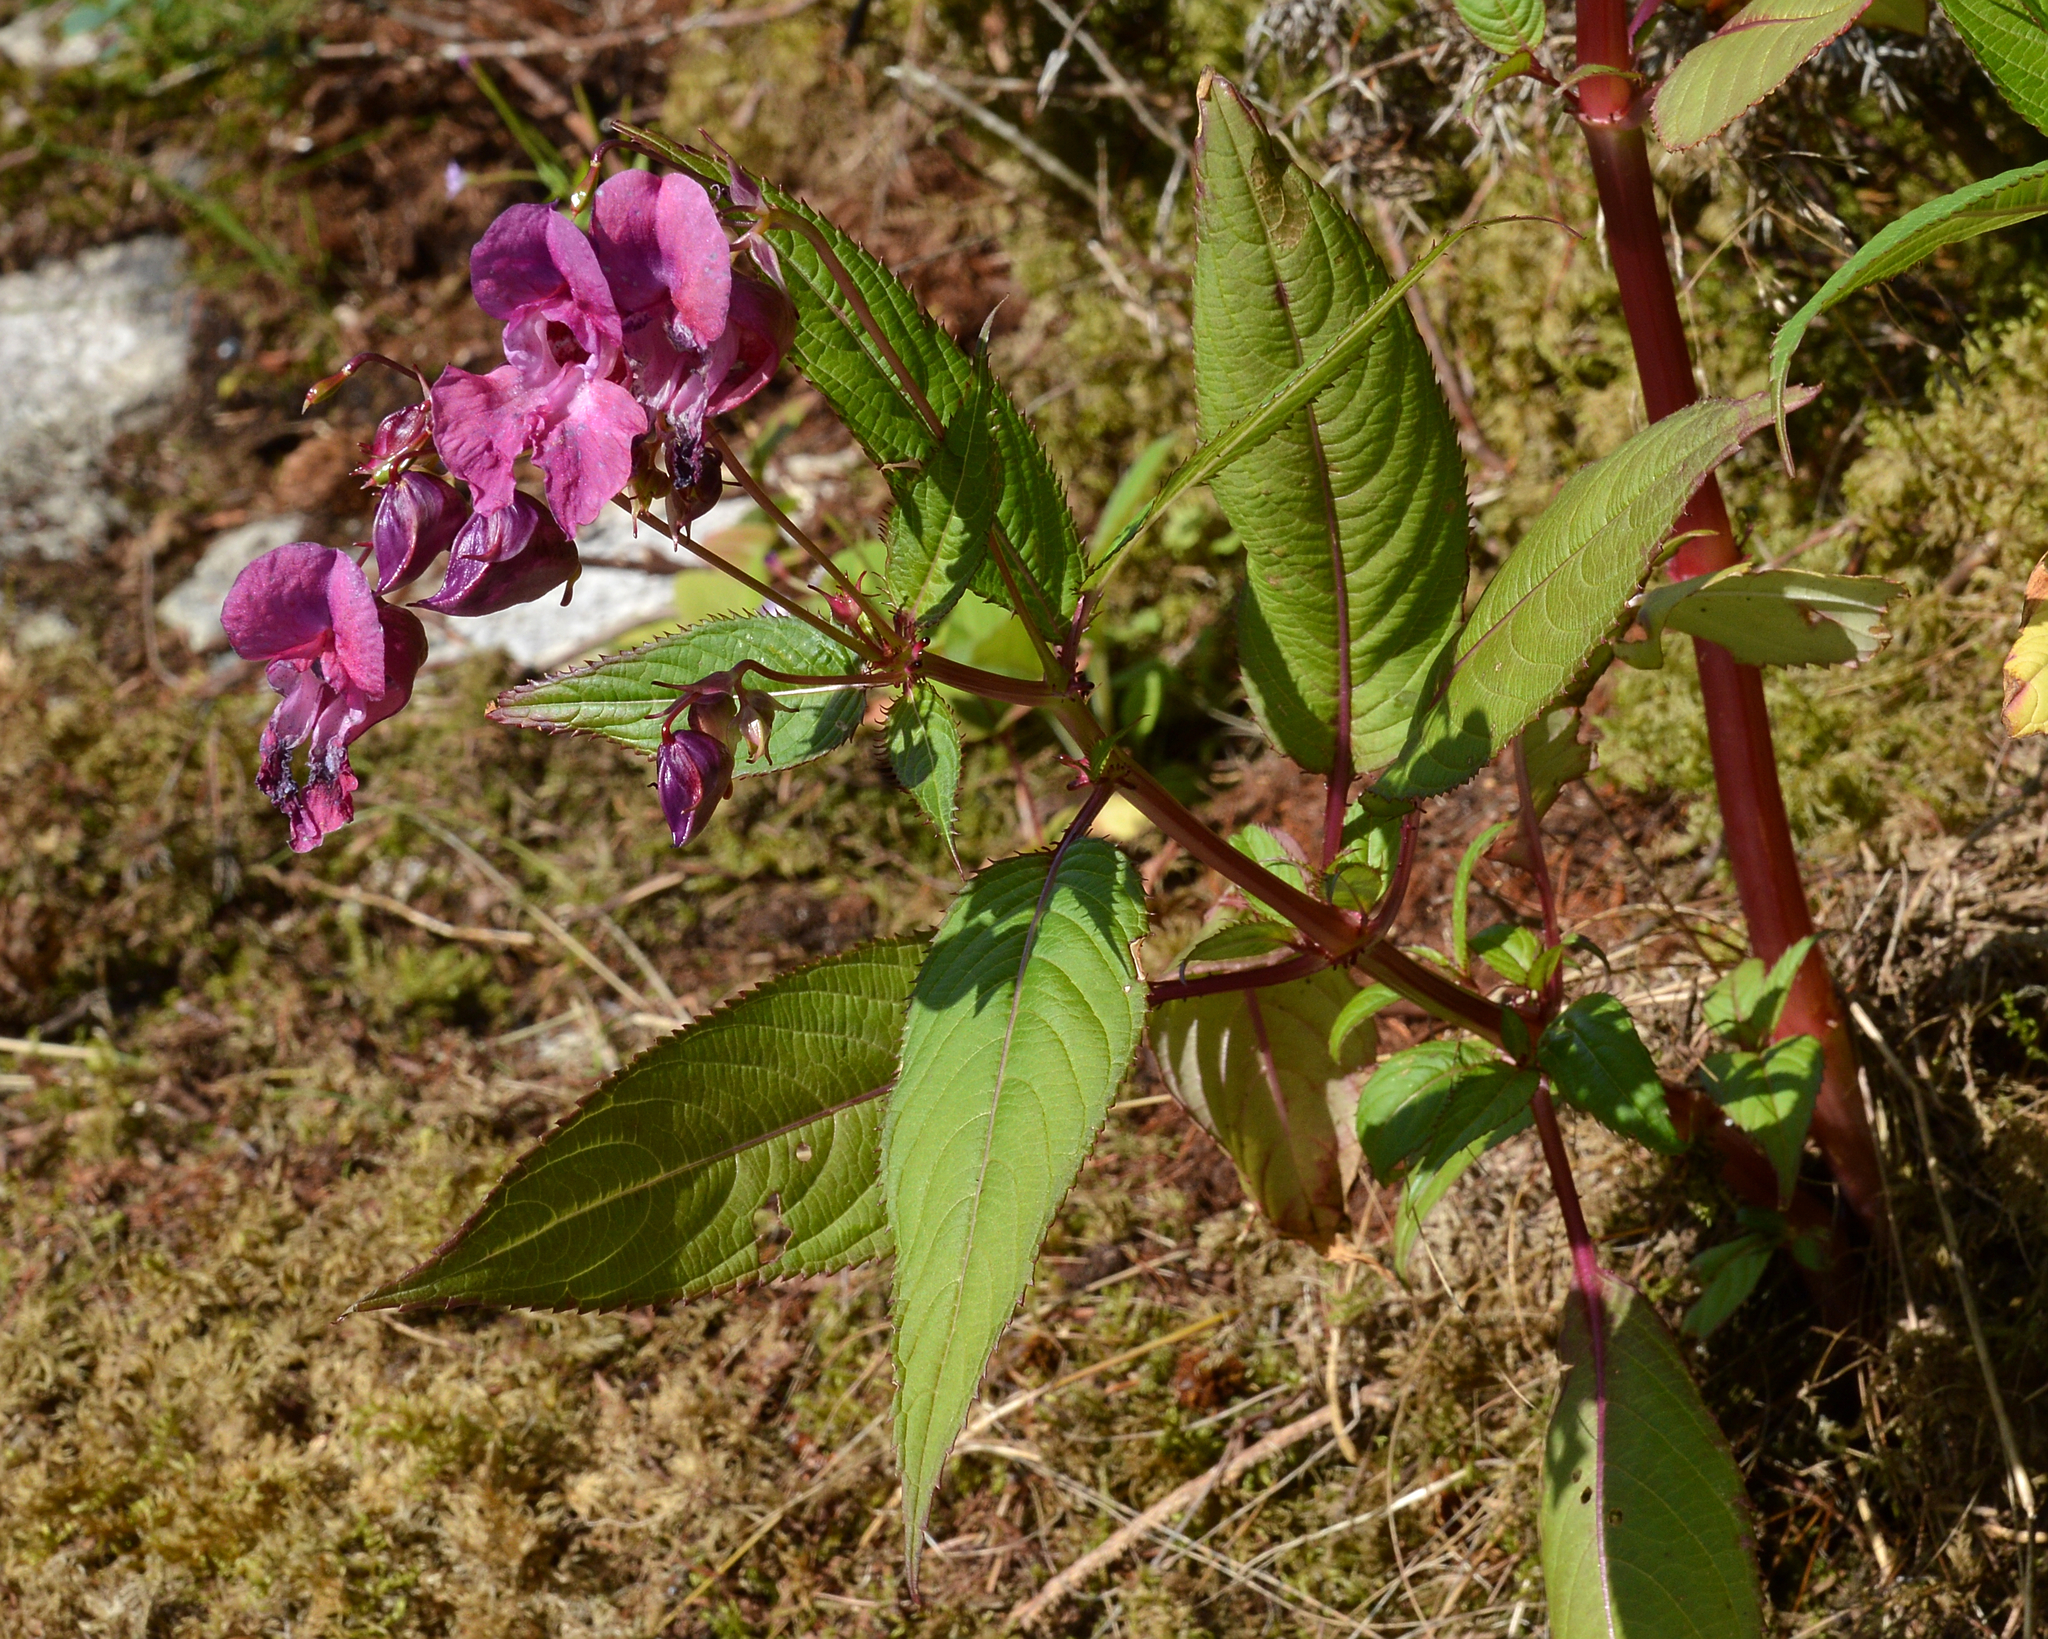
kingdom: Plantae
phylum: Tracheophyta
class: Magnoliopsida
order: Ericales
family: Balsaminaceae
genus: Impatiens
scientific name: Impatiens glandulifera
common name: Himalayan balsam
